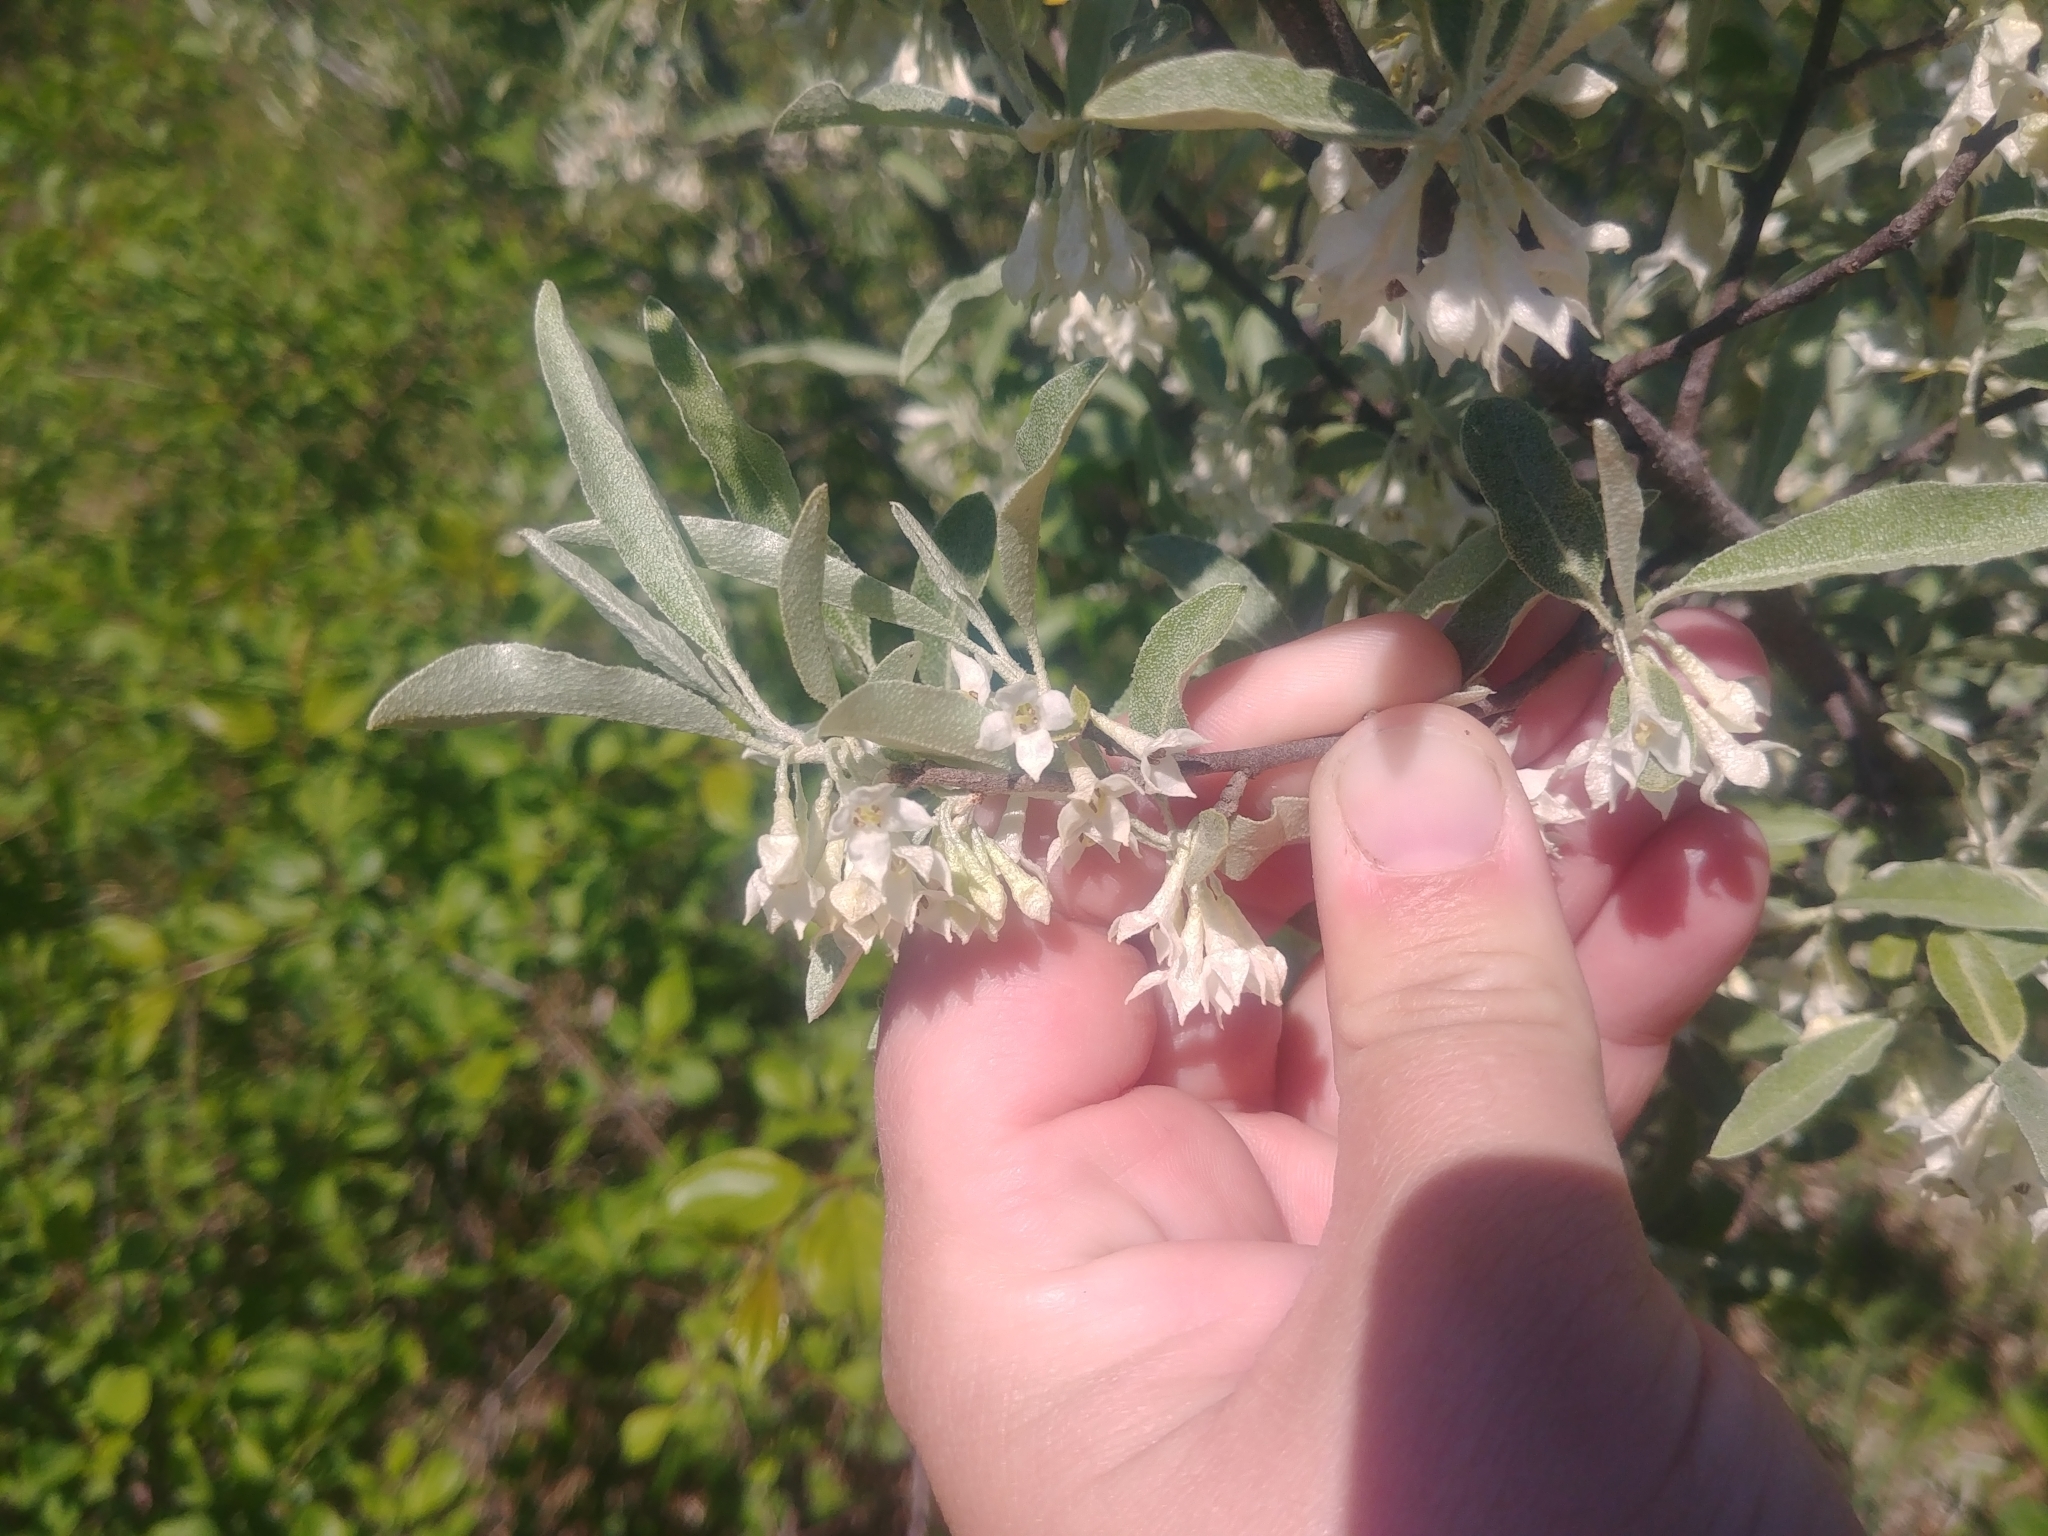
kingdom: Plantae
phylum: Tracheophyta
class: Magnoliopsida
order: Rosales
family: Elaeagnaceae
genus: Elaeagnus
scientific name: Elaeagnus umbellata
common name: Autumn olive
